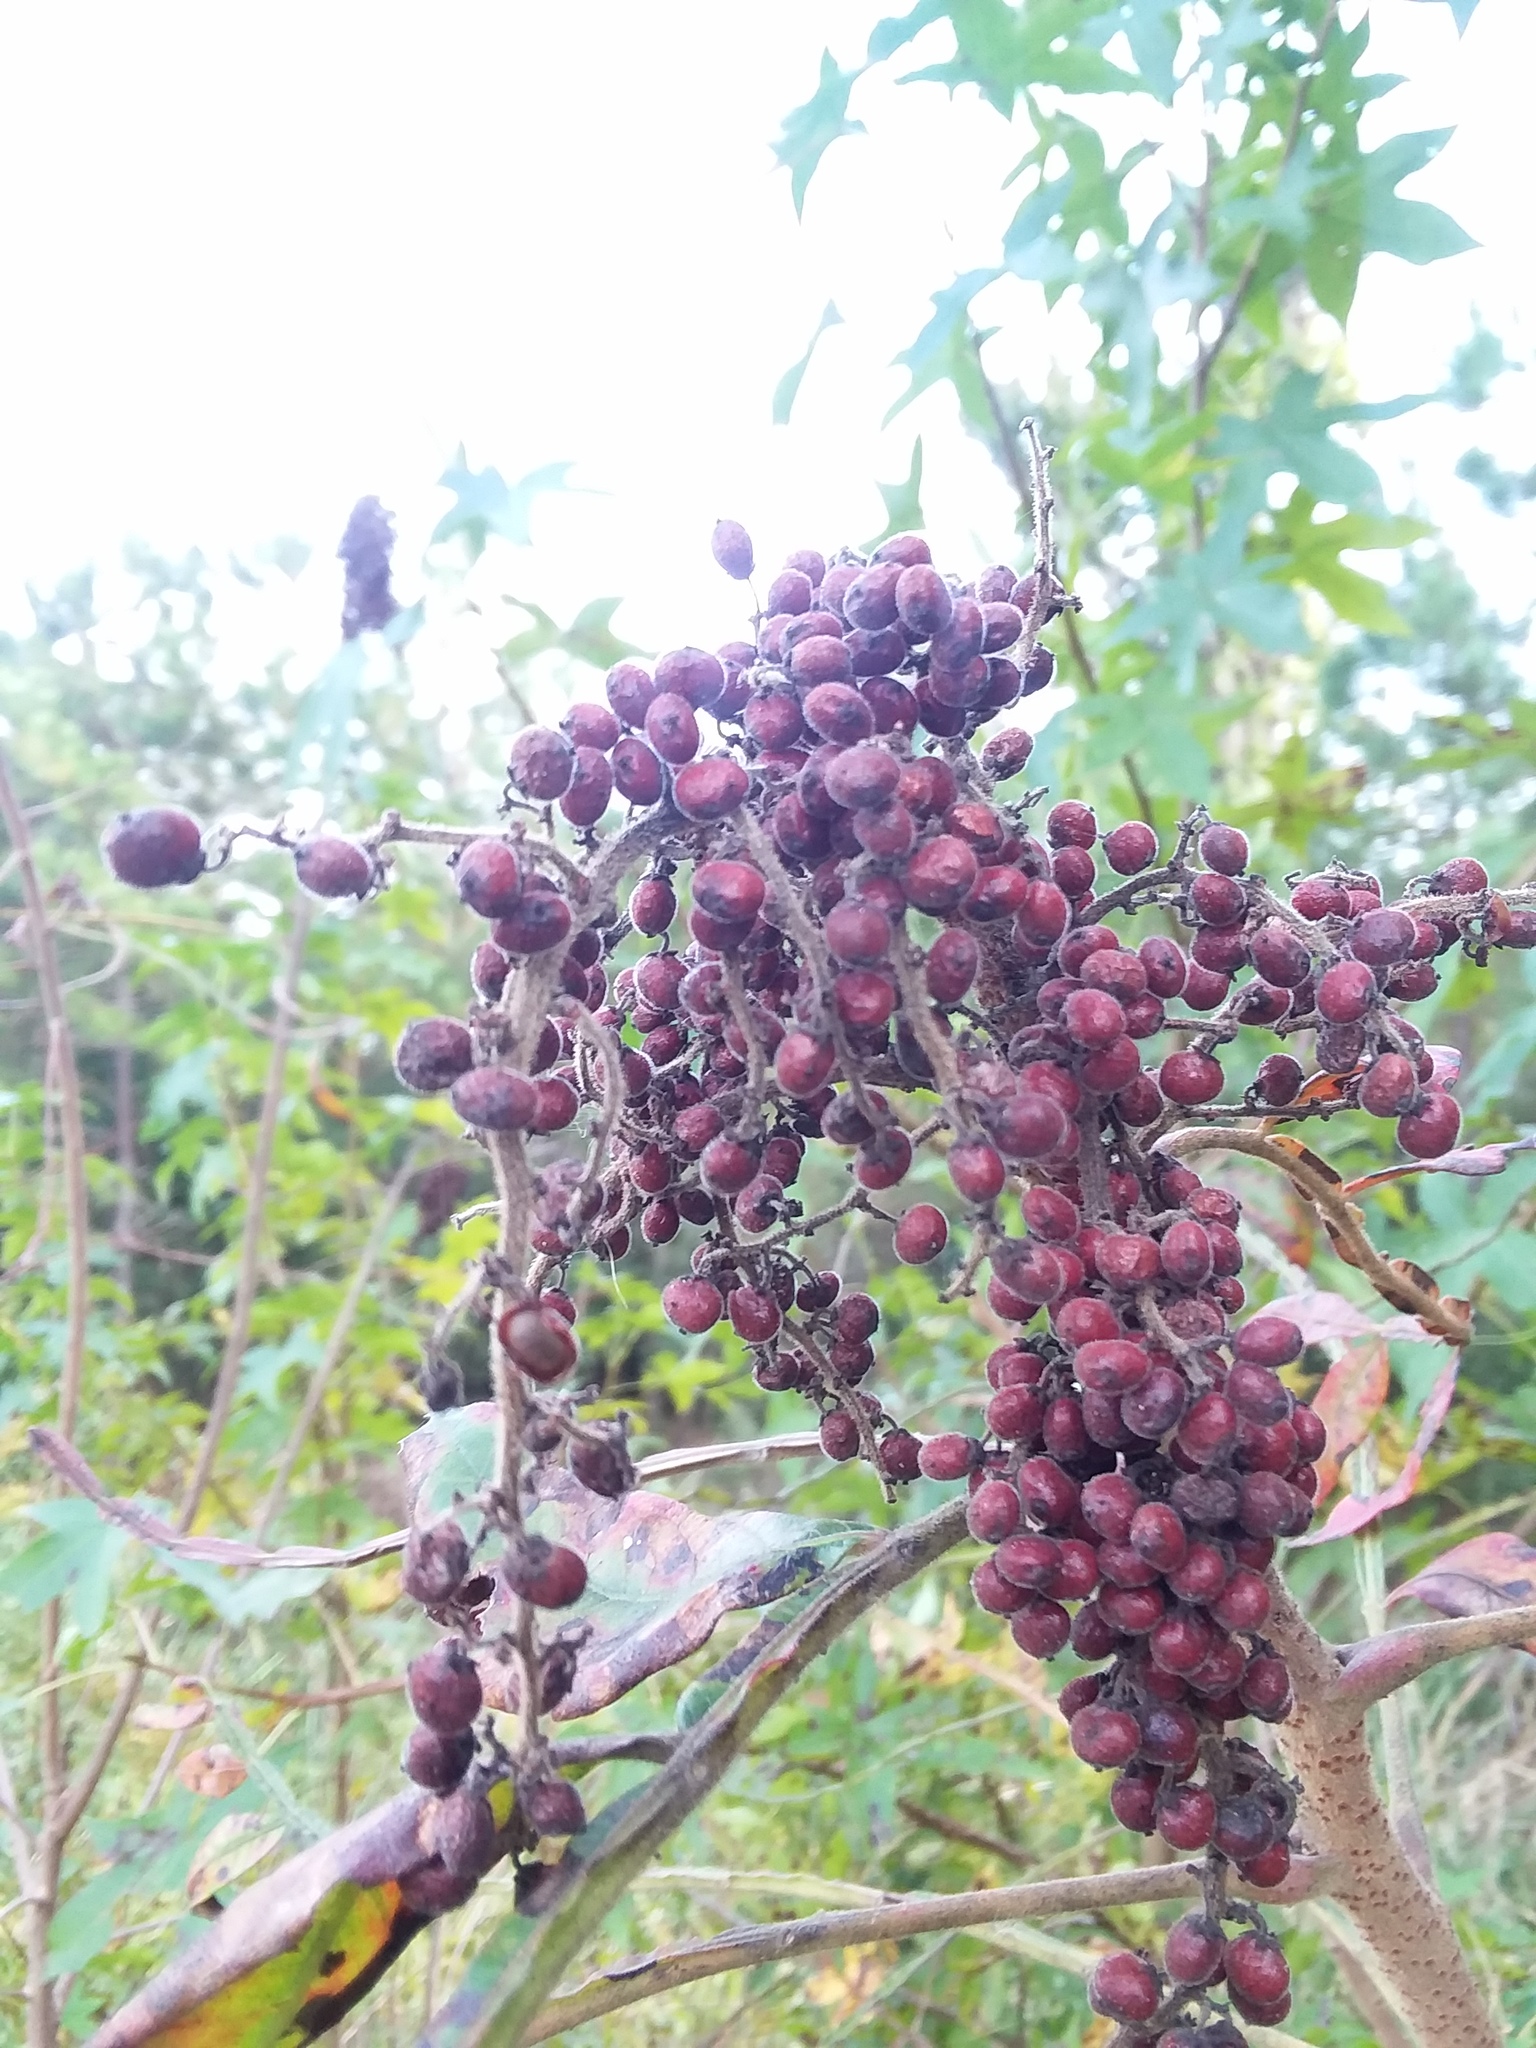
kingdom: Plantae
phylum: Tracheophyta
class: Magnoliopsida
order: Sapindales
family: Anacardiaceae
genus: Rhus
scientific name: Rhus copallina
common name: Shining sumac
